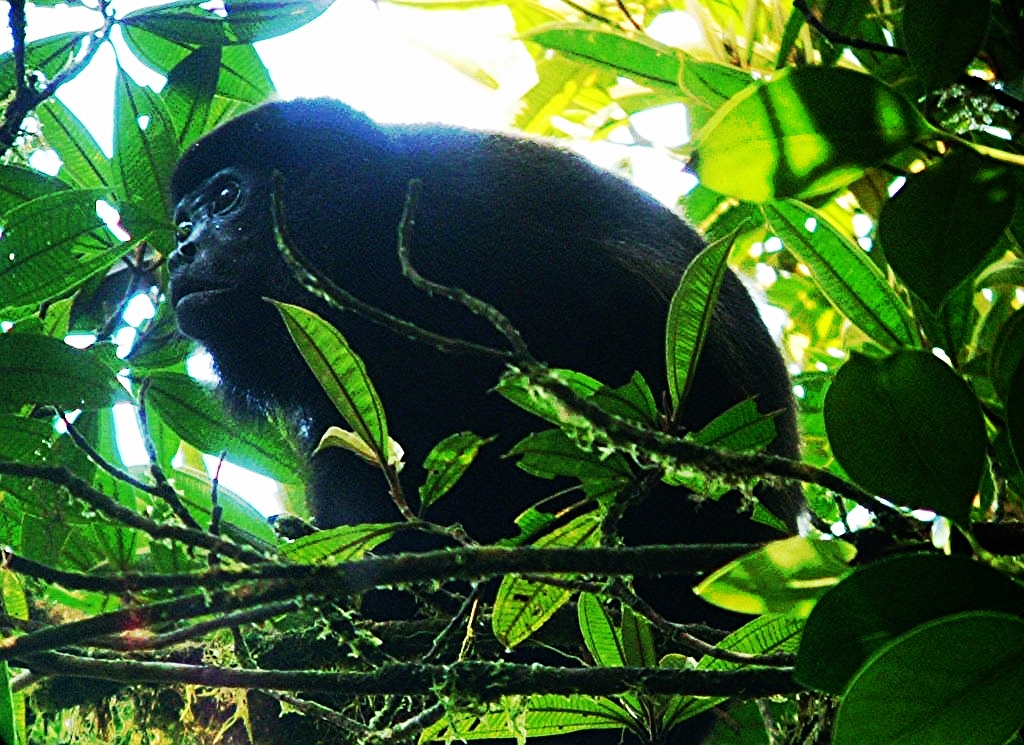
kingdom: Animalia
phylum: Chordata
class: Mammalia
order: Primates
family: Atelidae
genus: Alouatta
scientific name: Alouatta palliata
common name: Mantled howler
